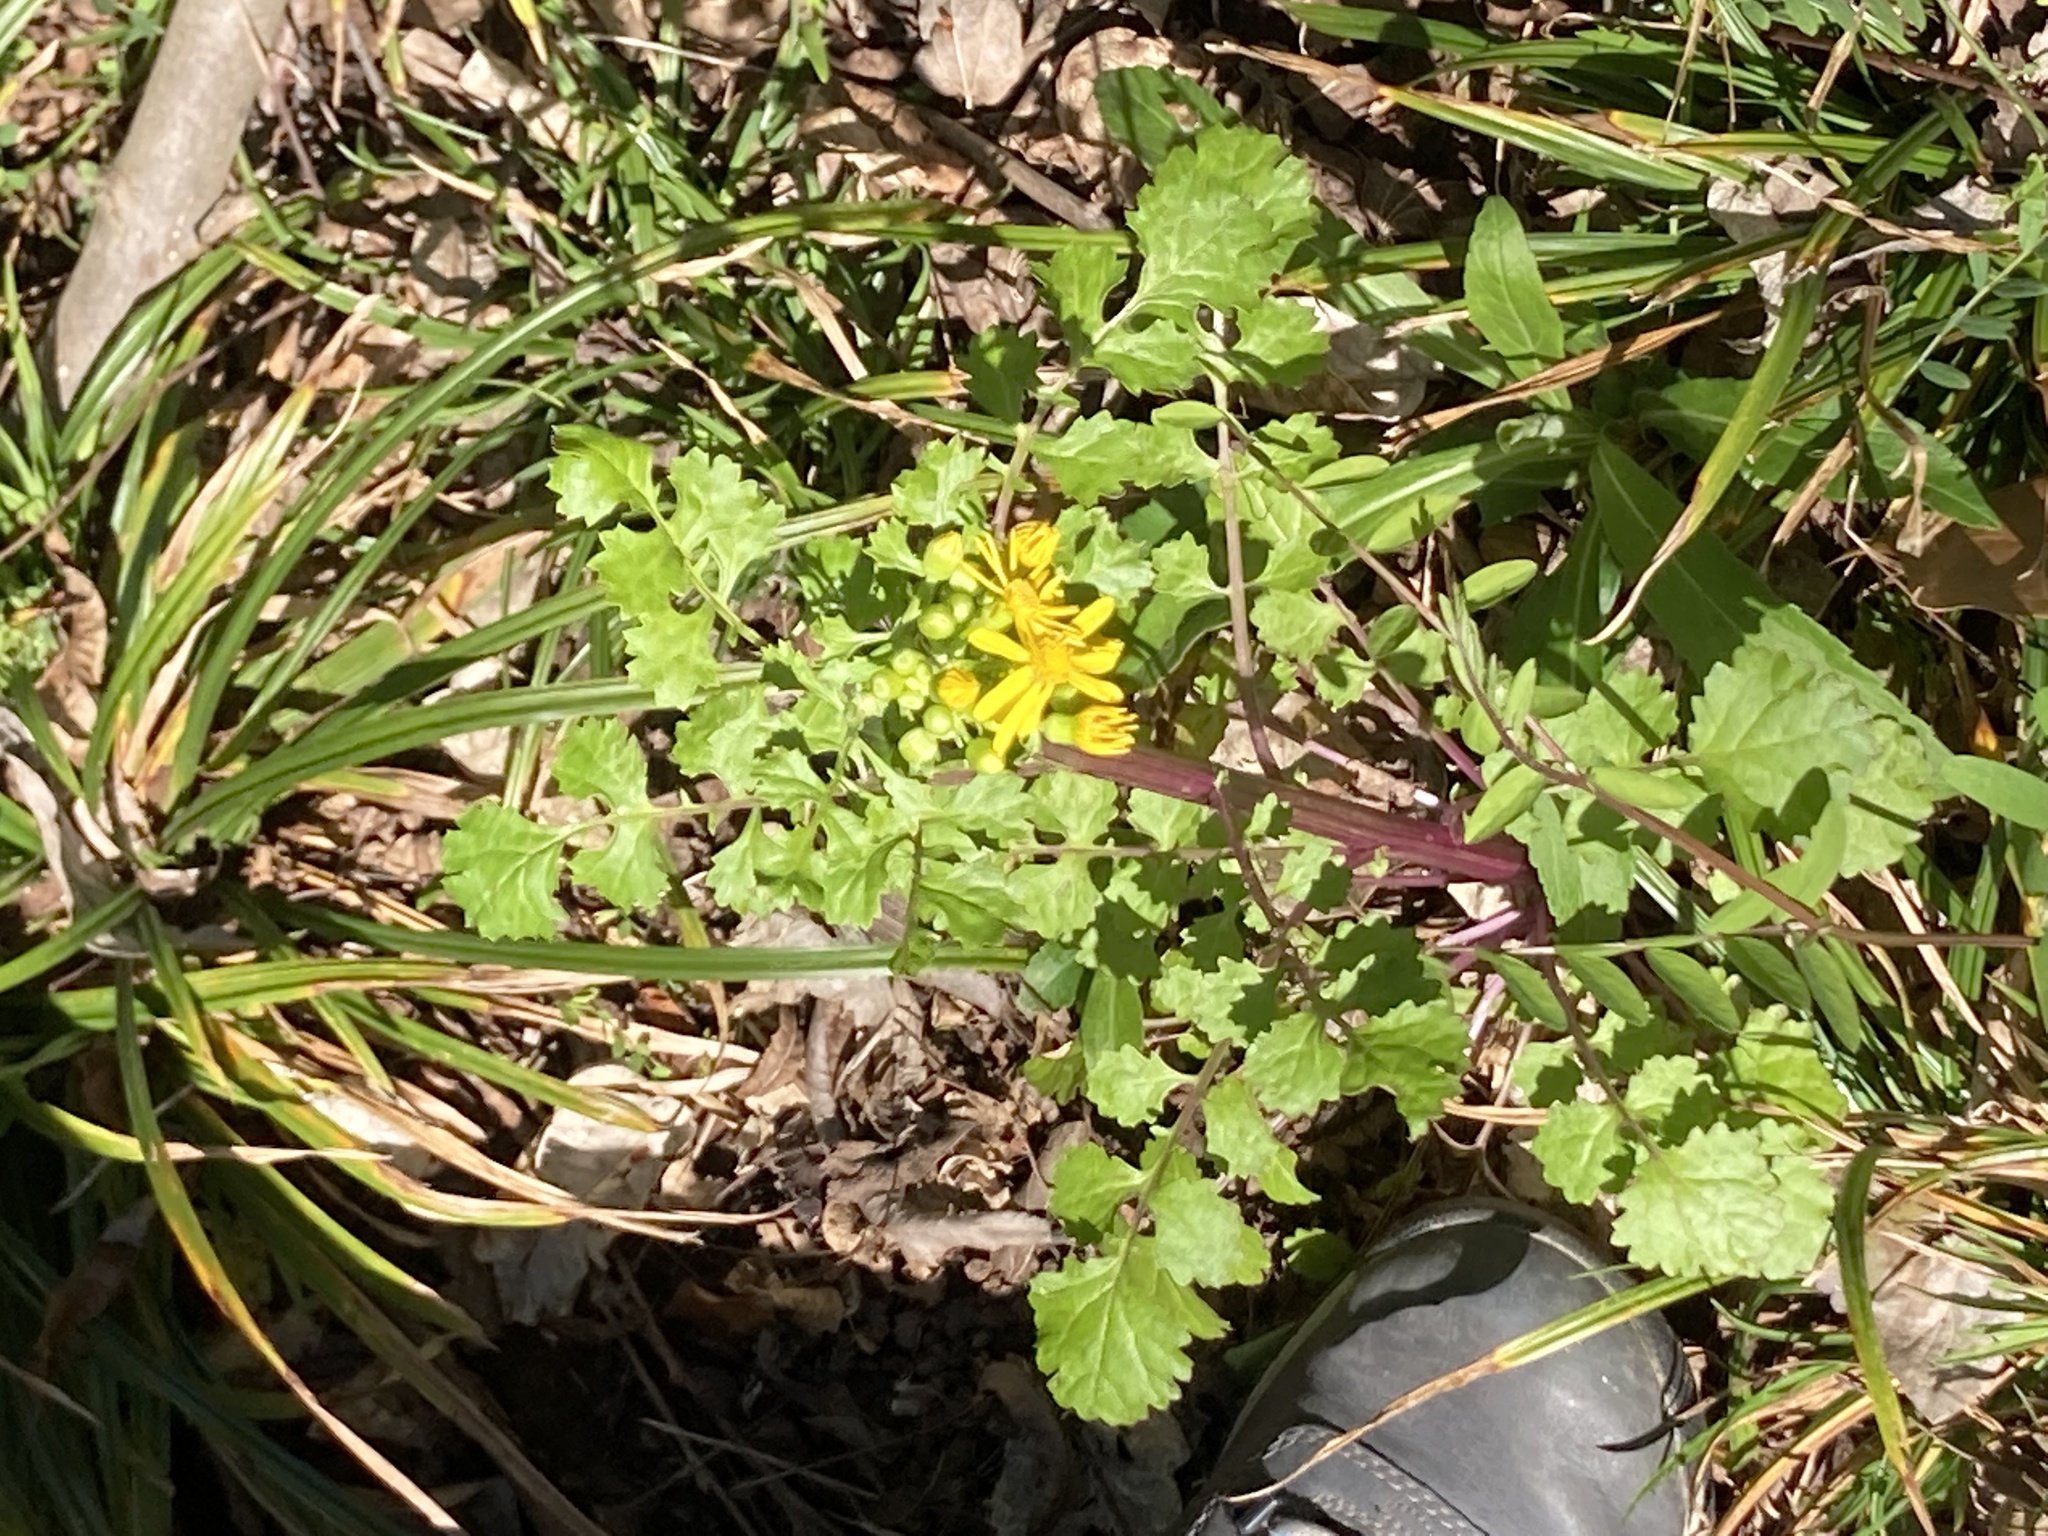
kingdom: Plantae
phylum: Tracheophyta
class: Magnoliopsida
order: Asterales
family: Asteraceae
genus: Packera
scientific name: Packera glabella
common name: Butterweed
